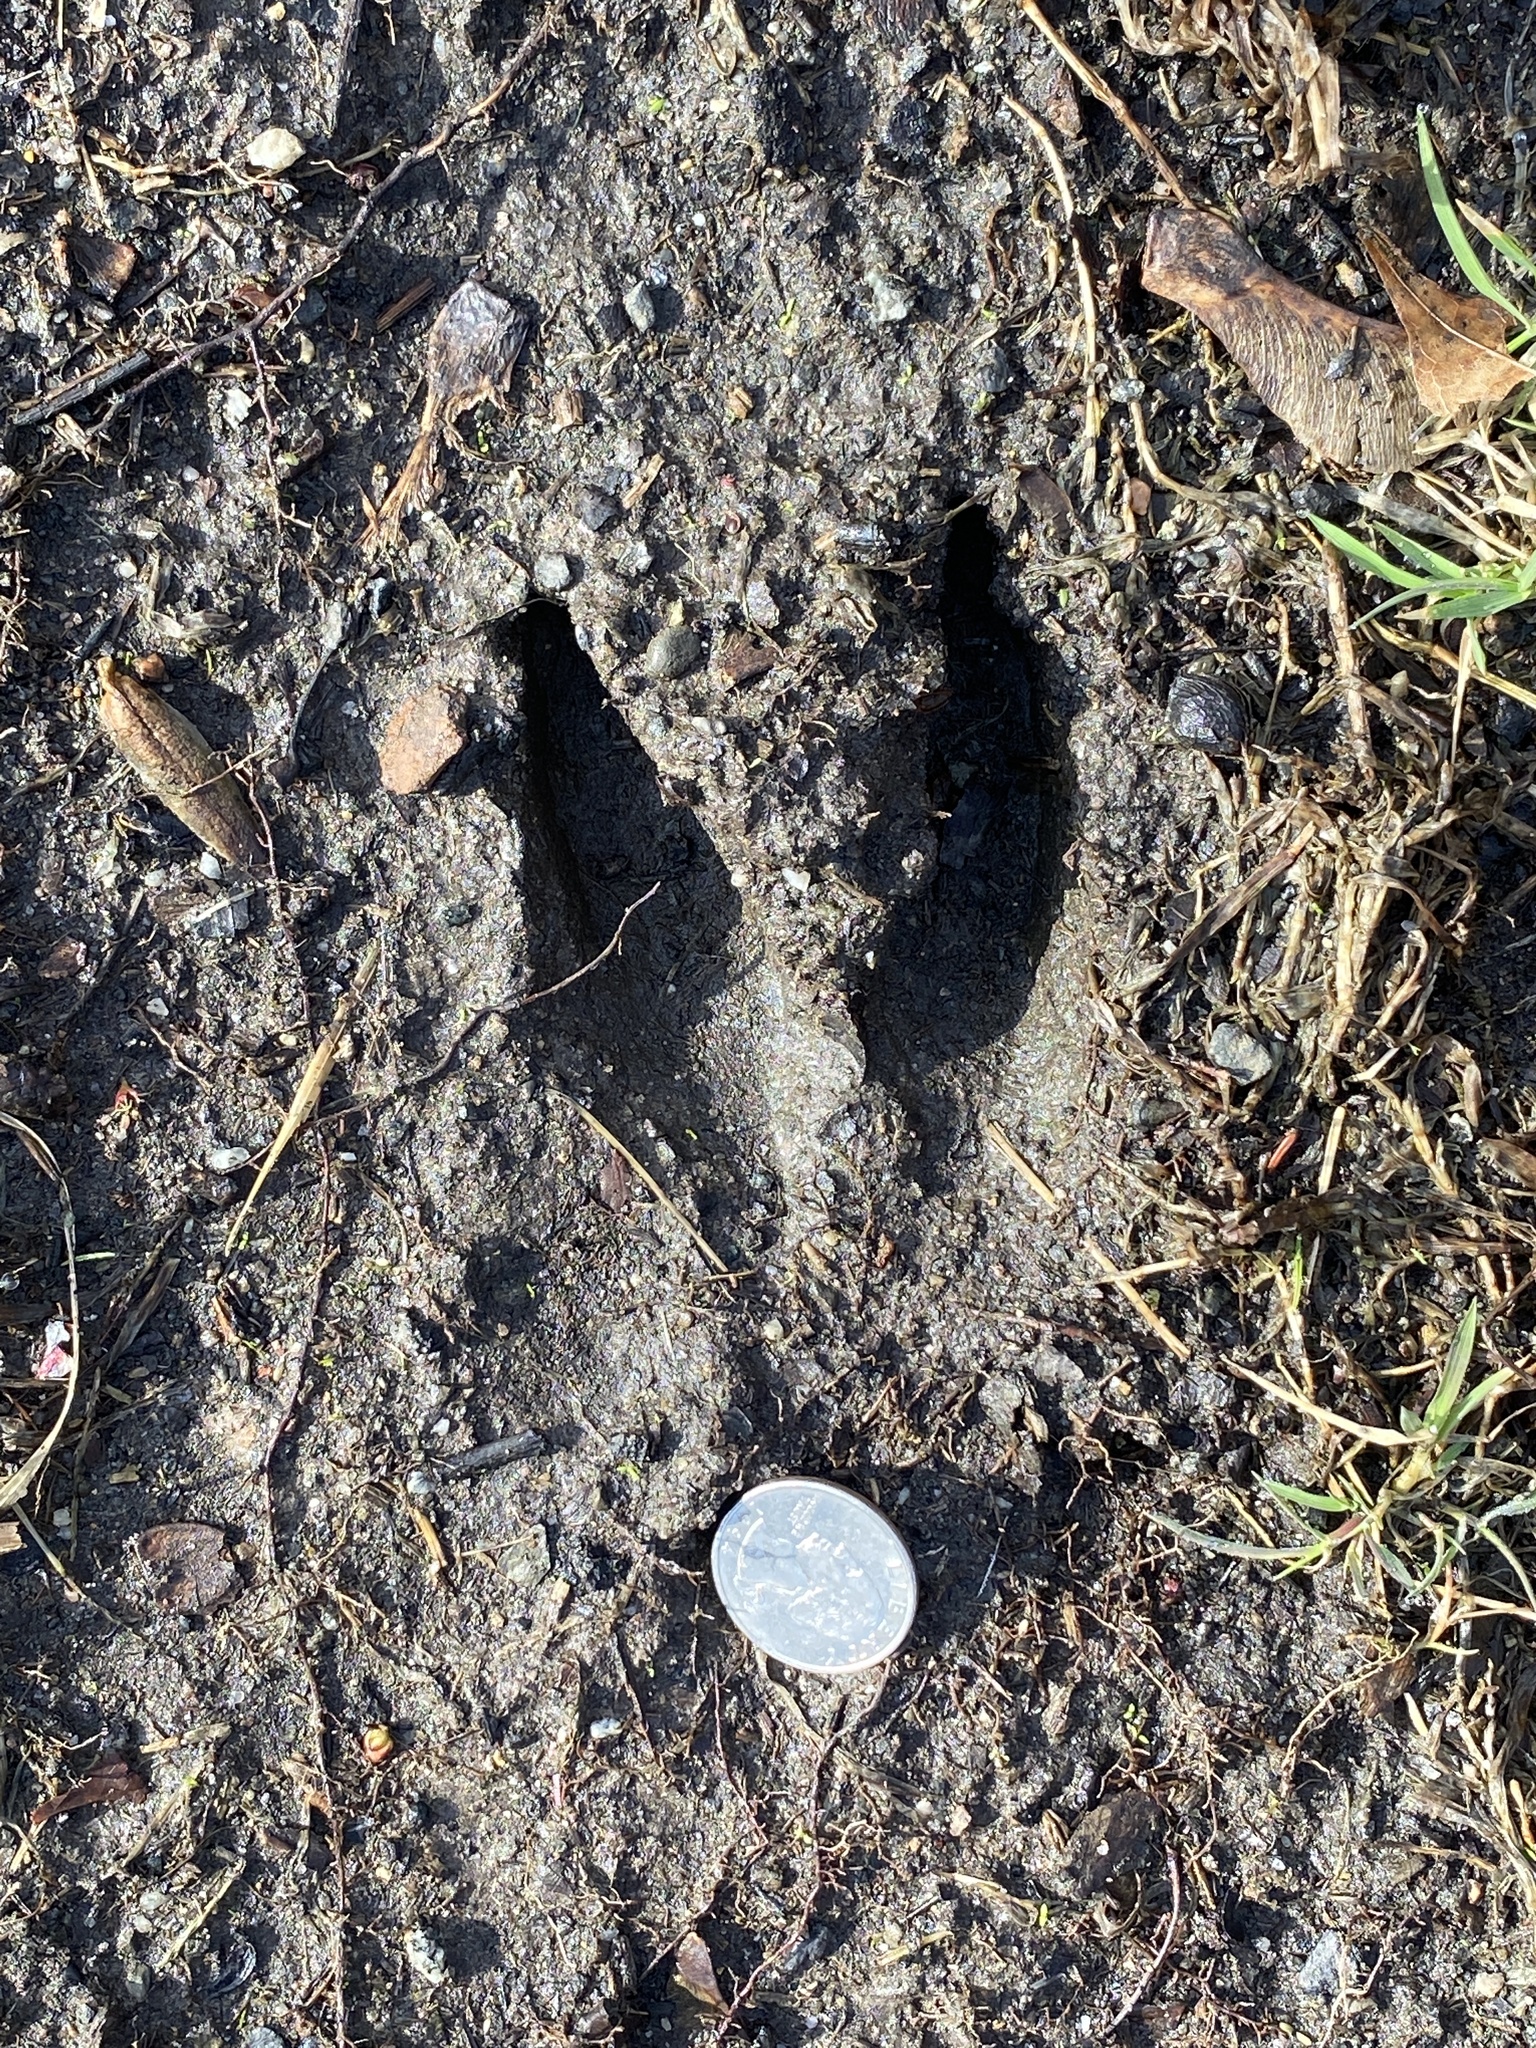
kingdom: Animalia
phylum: Chordata
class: Mammalia
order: Artiodactyla
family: Cervidae
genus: Odocoileus
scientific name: Odocoileus virginianus
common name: White-tailed deer
